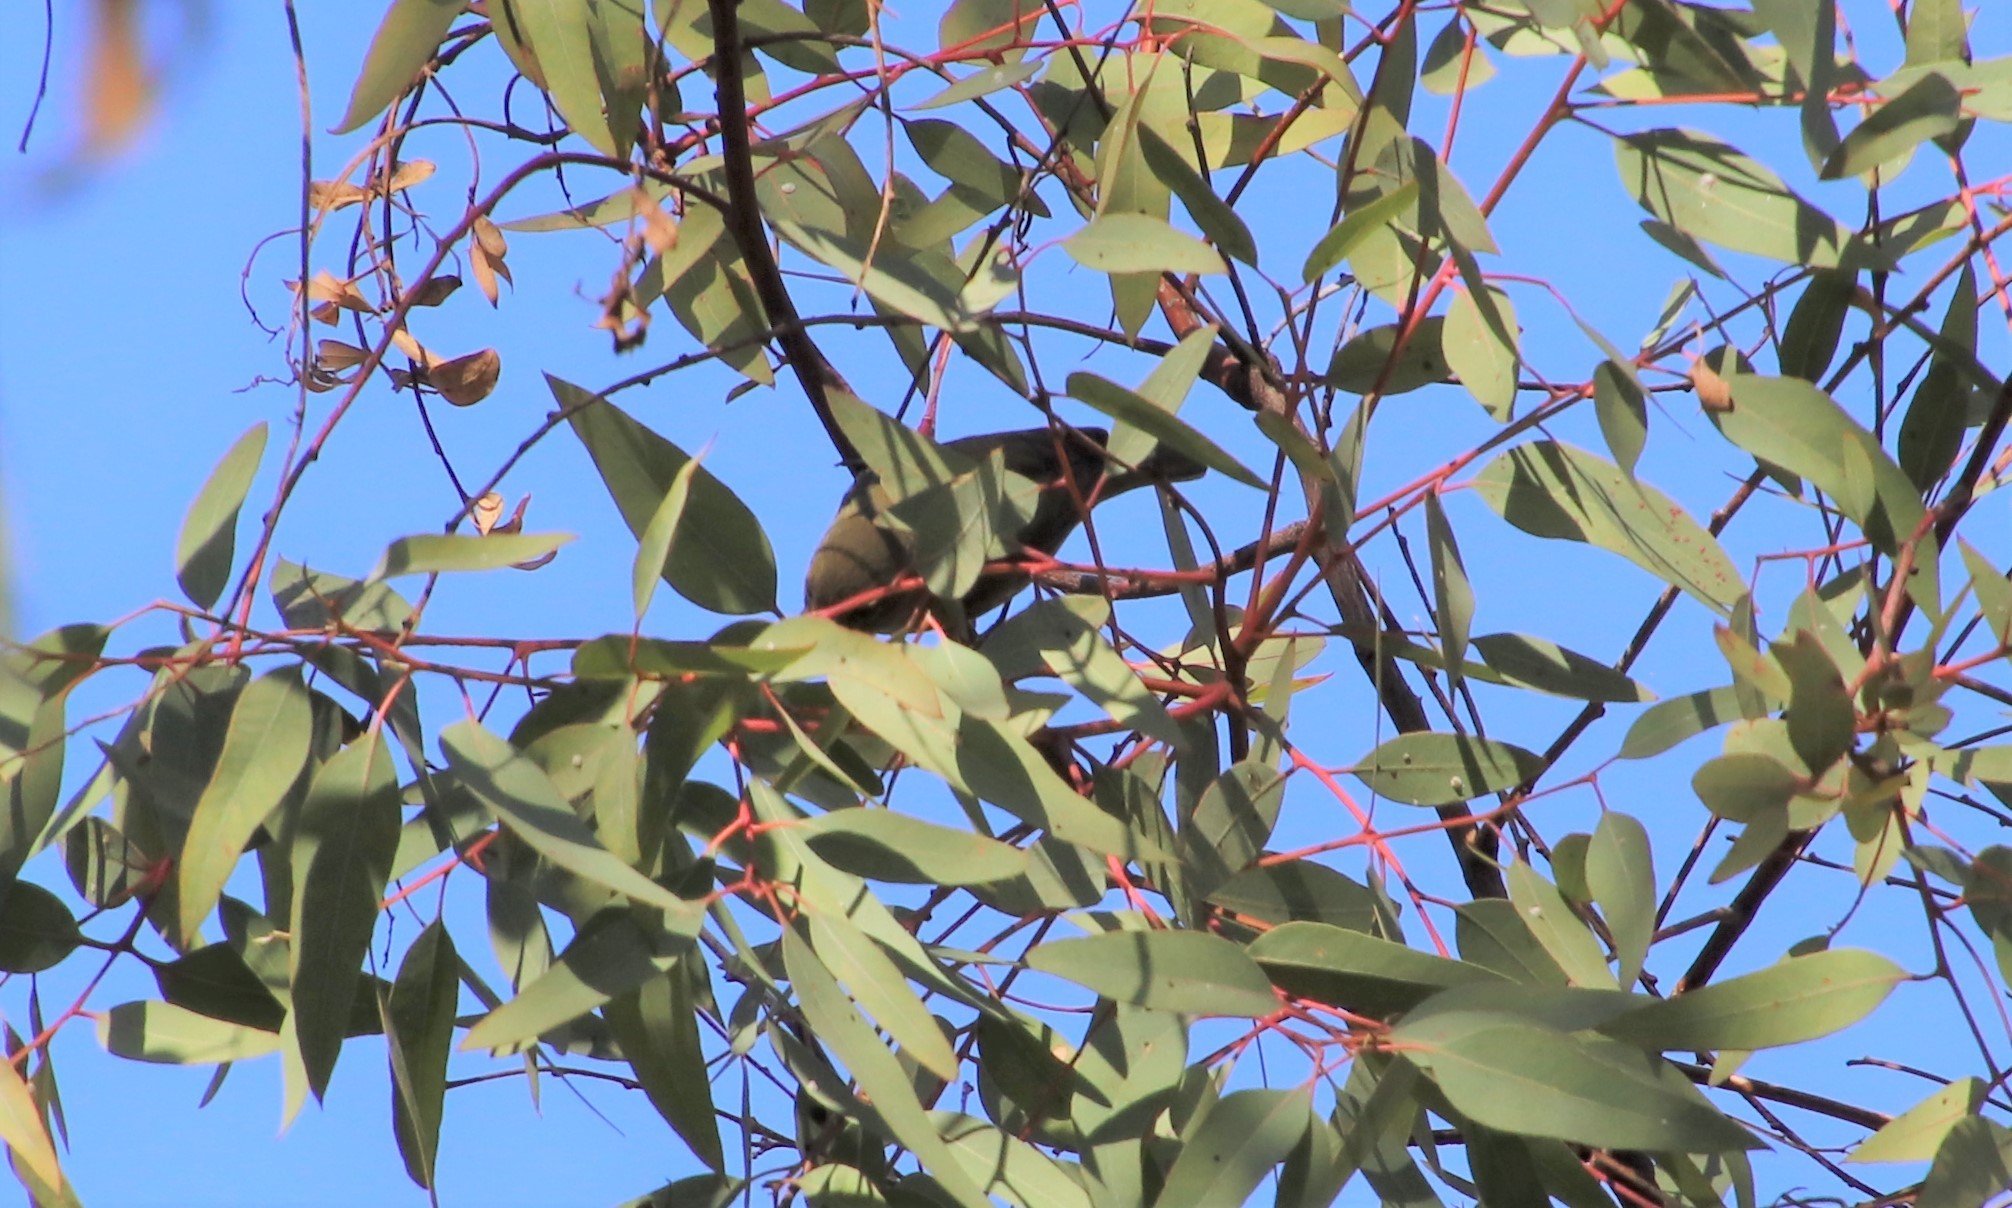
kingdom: Animalia
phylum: Chordata
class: Aves
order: Passeriformes
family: Parulidae
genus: Leiothlypis
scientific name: Leiothlypis celata
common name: Orange-crowned warbler
